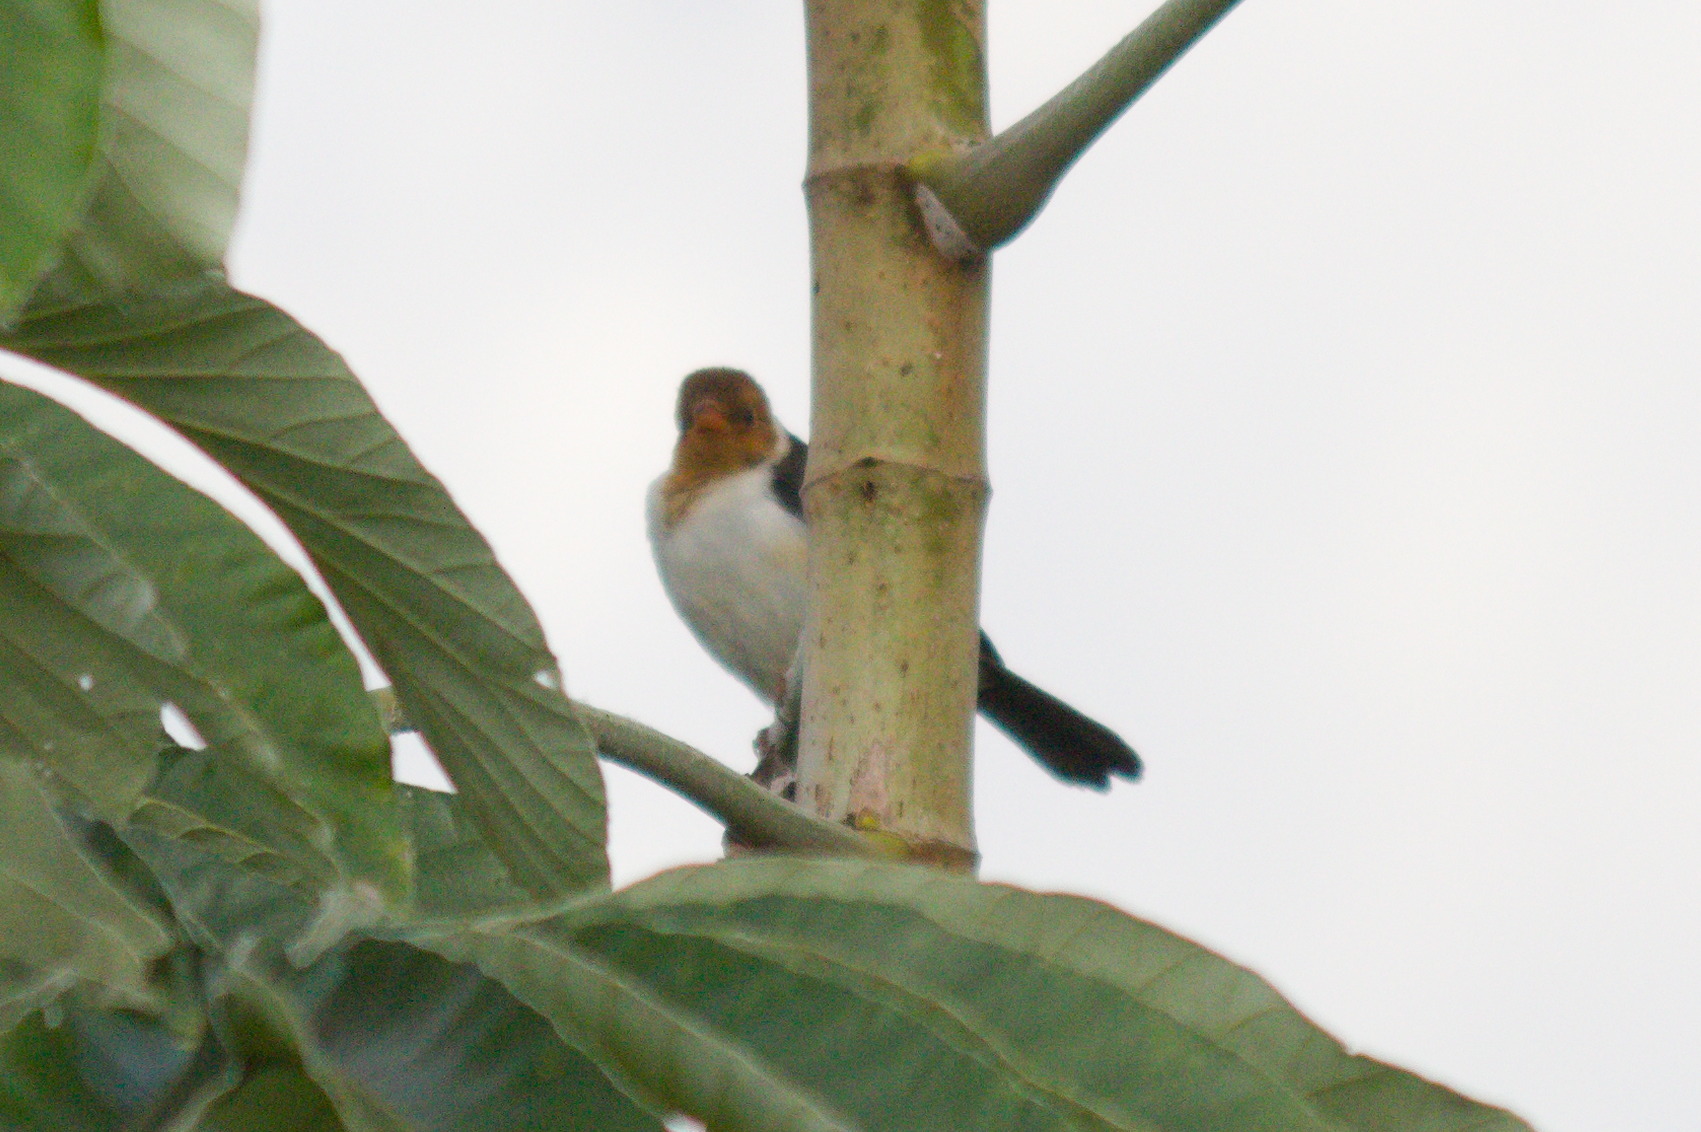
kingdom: Animalia
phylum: Chordata
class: Aves
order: Passeriformes
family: Thraupidae
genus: Paroaria
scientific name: Paroaria capitata
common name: Yellow-billed cardinal
